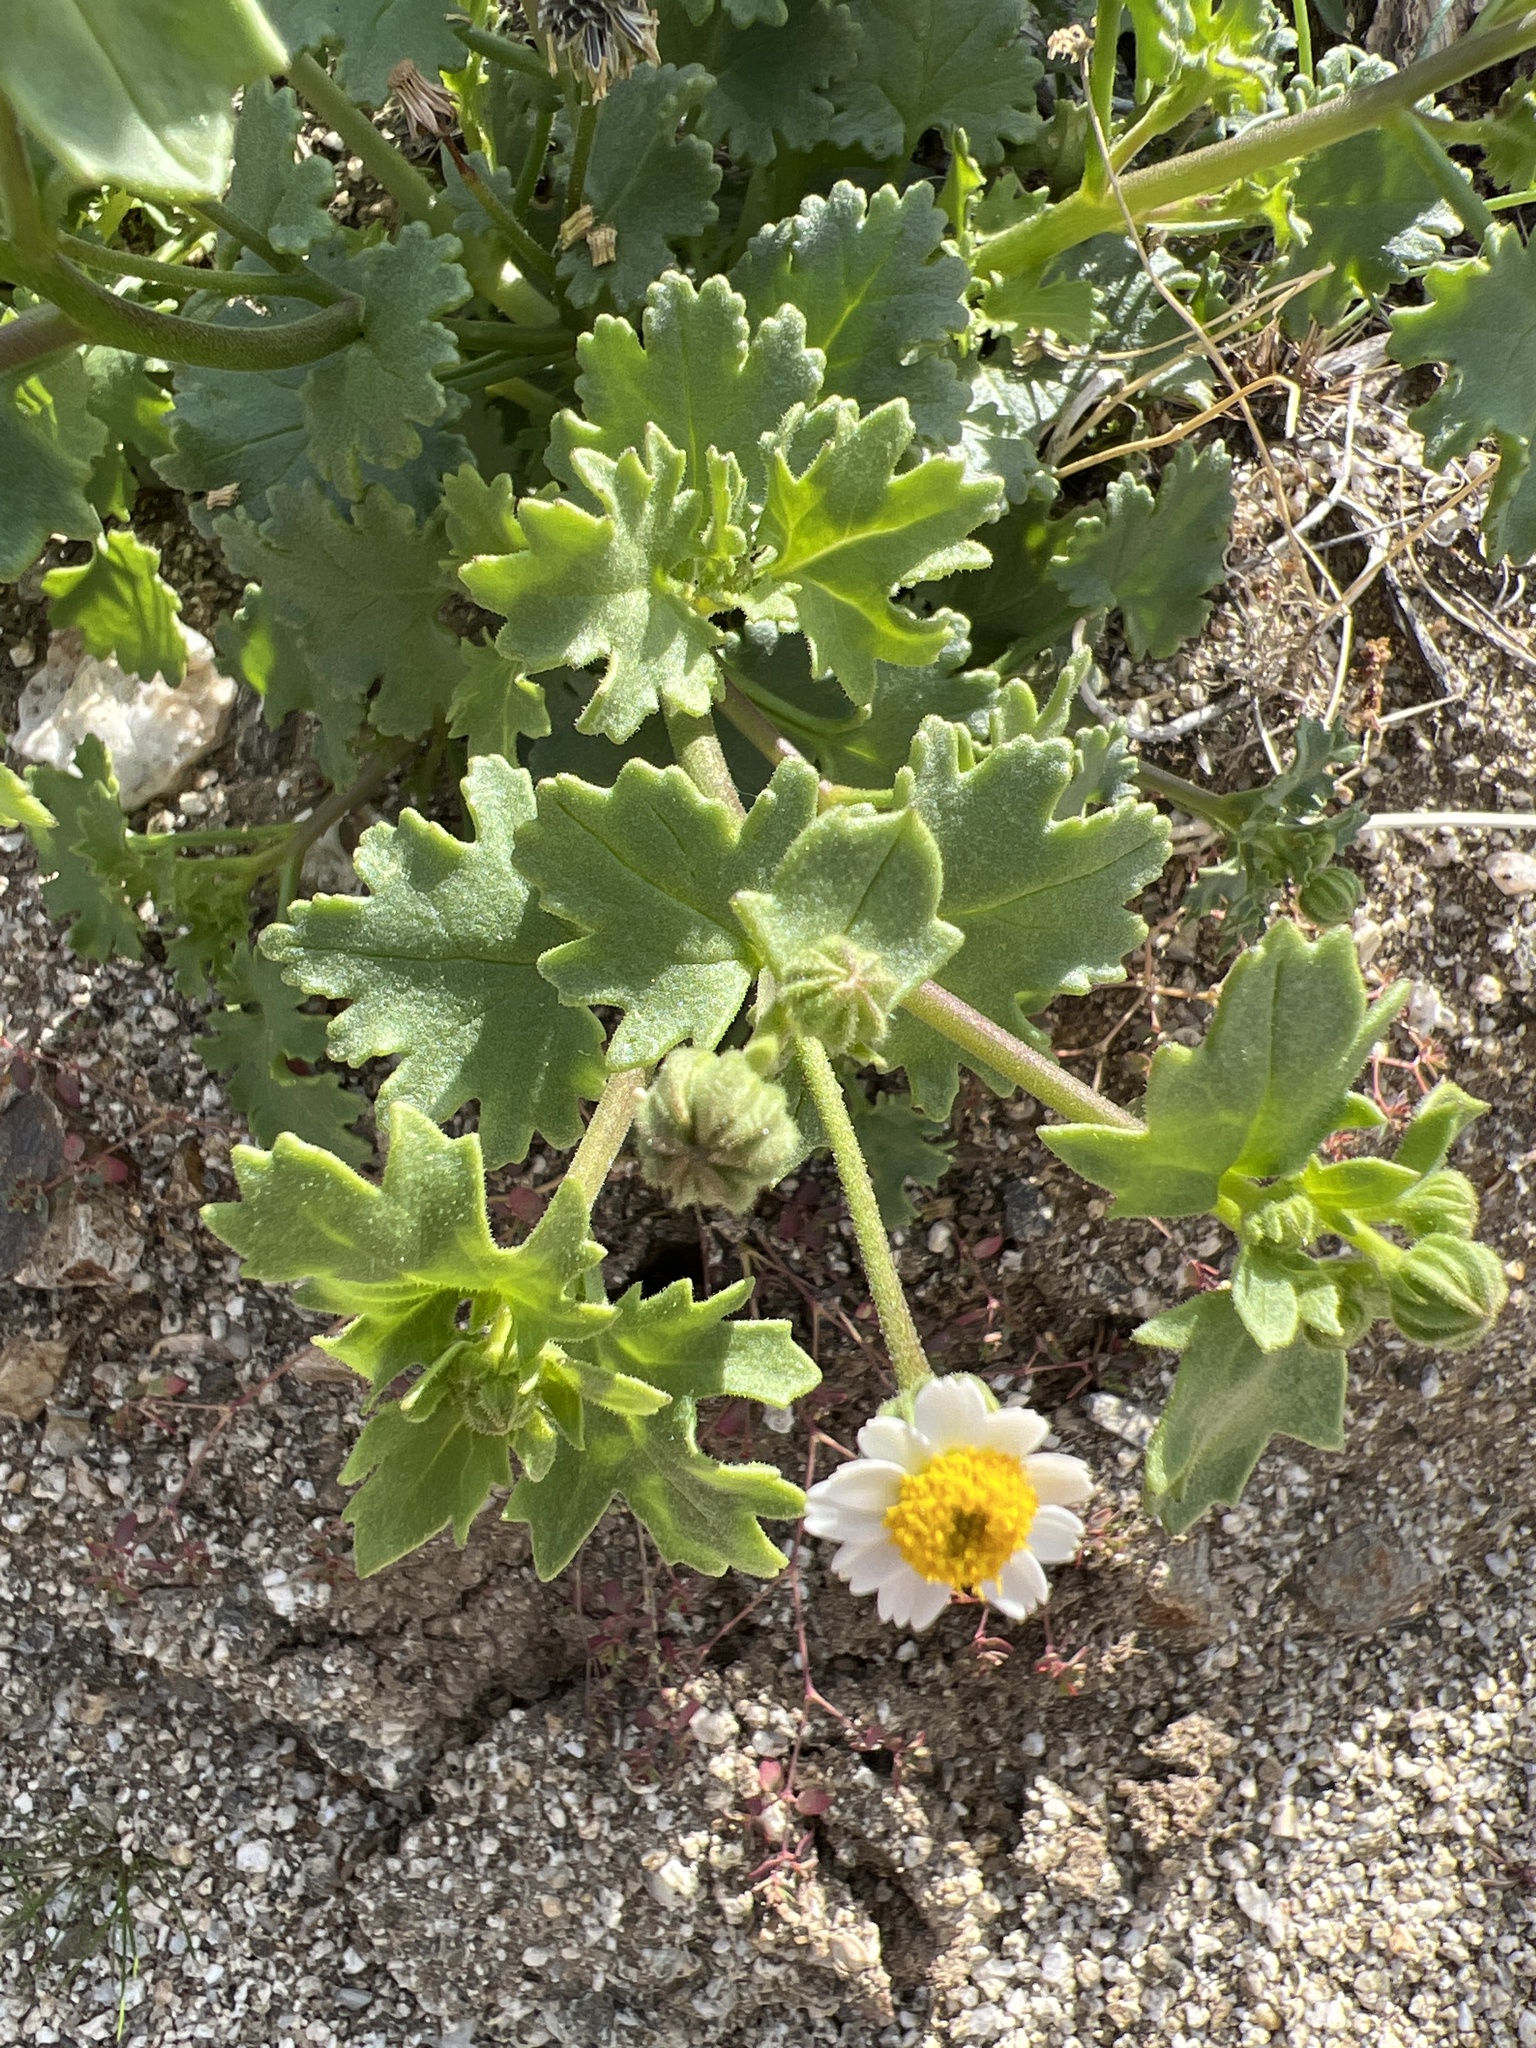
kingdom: Plantae
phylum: Tracheophyta
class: Magnoliopsida
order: Asterales
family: Asteraceae
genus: Laphamia
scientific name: Laphamia emoryi
